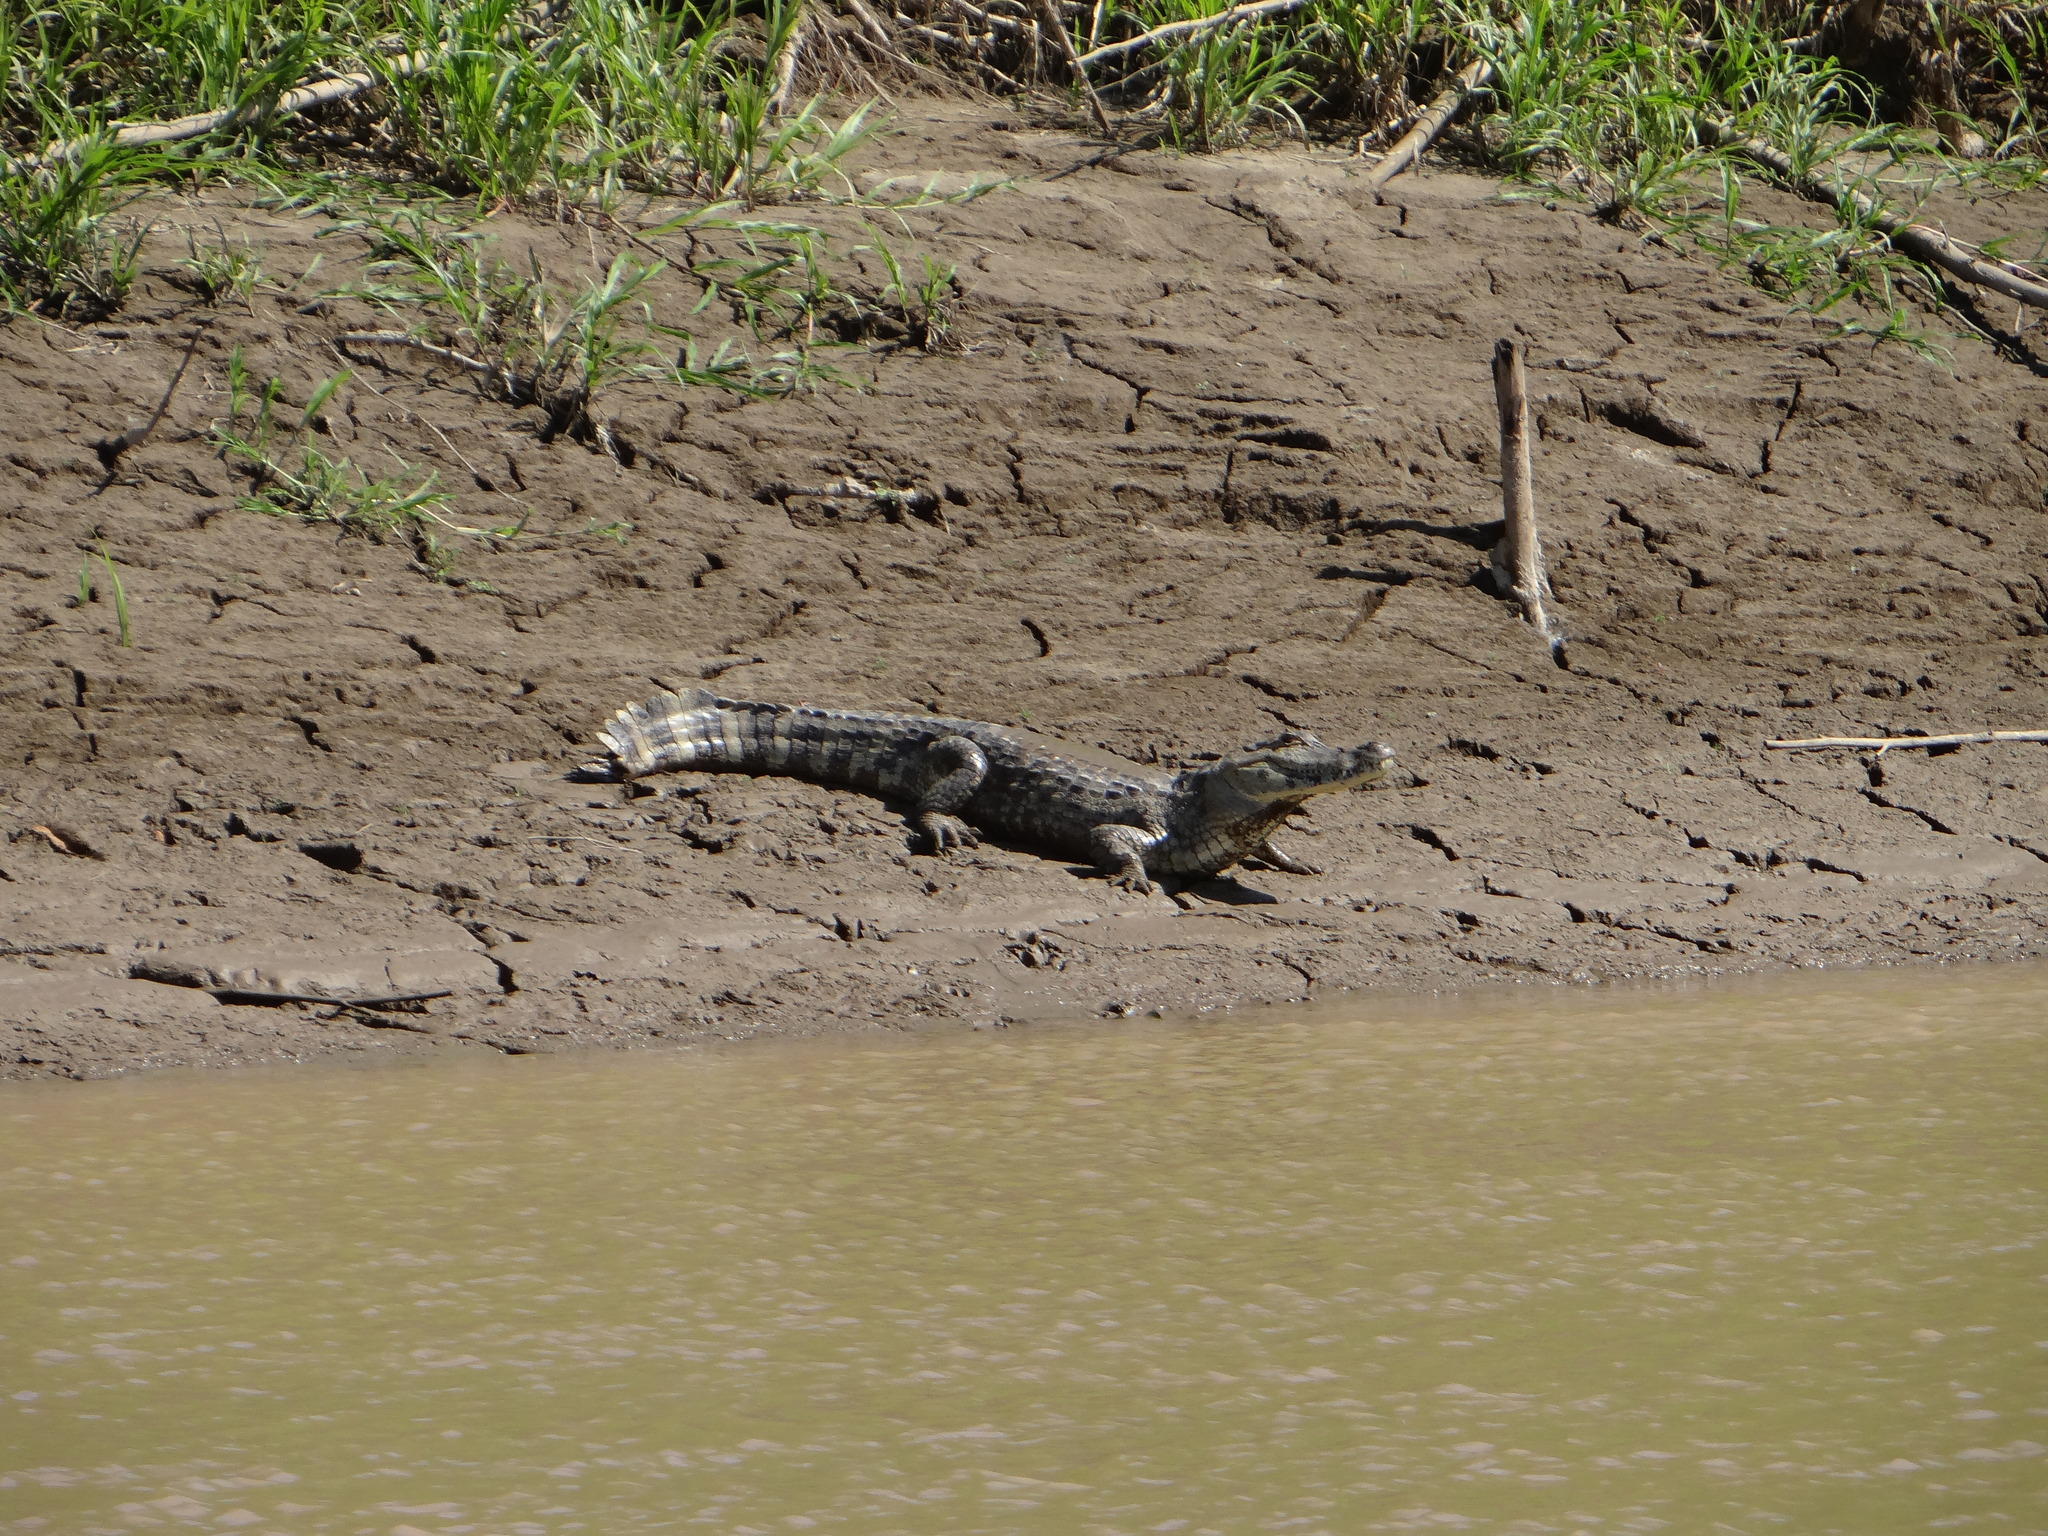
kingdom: Animalia
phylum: Chordata
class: Crocodylia
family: Alligatoridae
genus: Caiman
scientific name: Caiman yacare
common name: Yacare caiman
